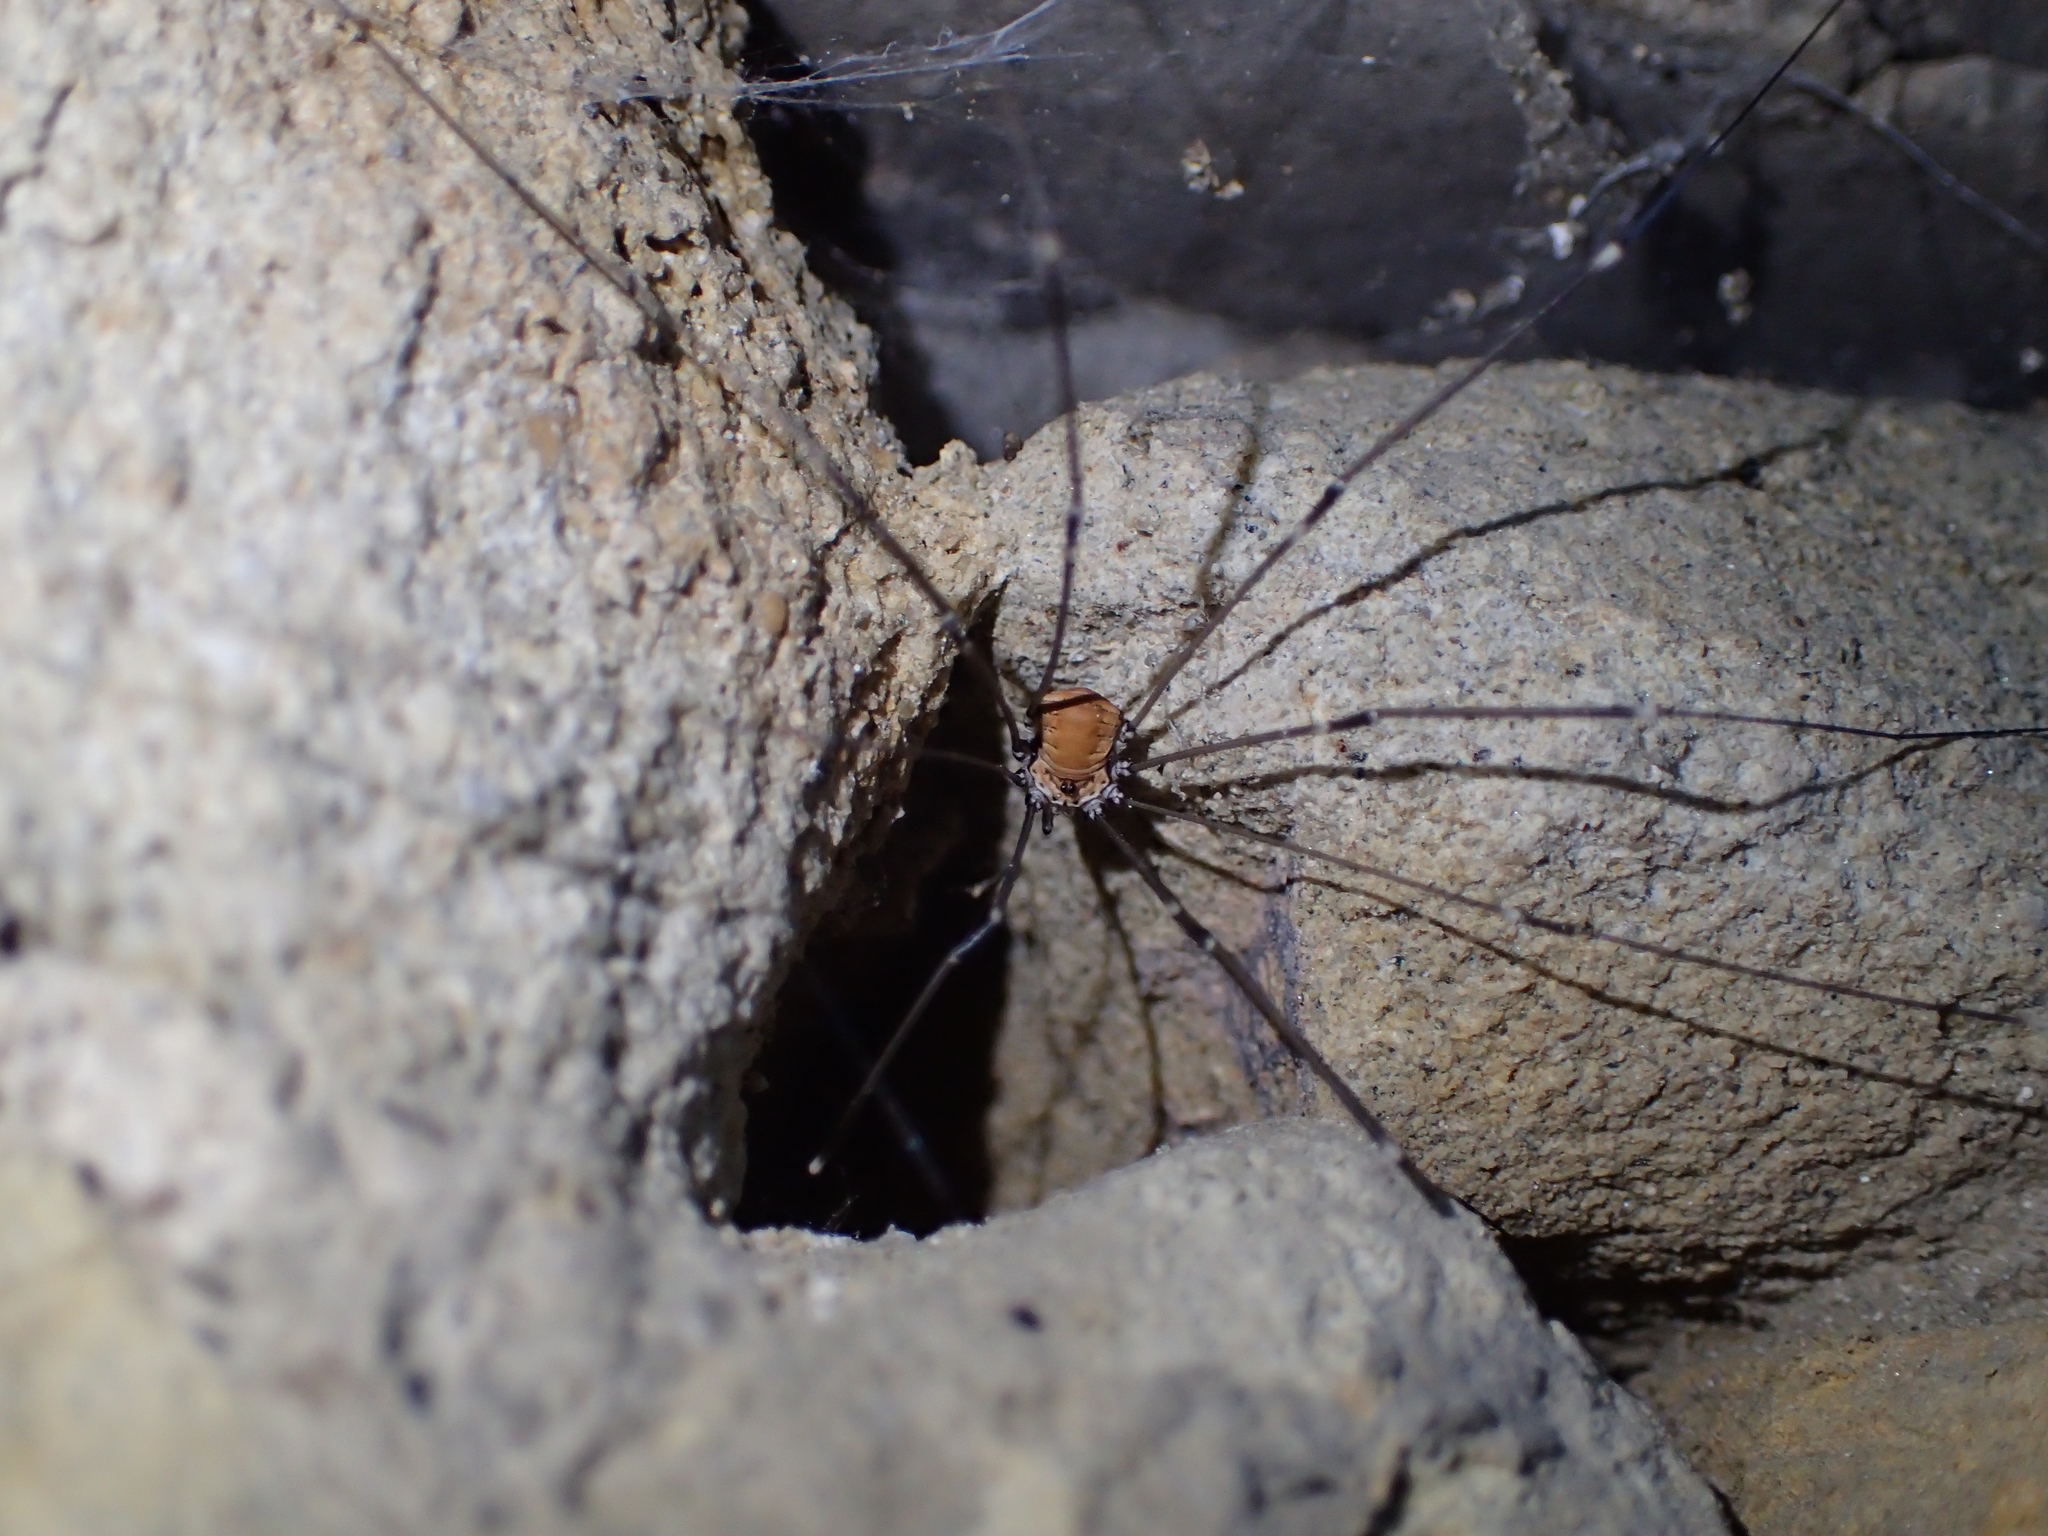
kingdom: Animalia
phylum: Arthropoda
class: Arachnida
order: Opiliones
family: Sclerosomatidae
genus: Leiobunum
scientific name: Leiobunum limbatum
